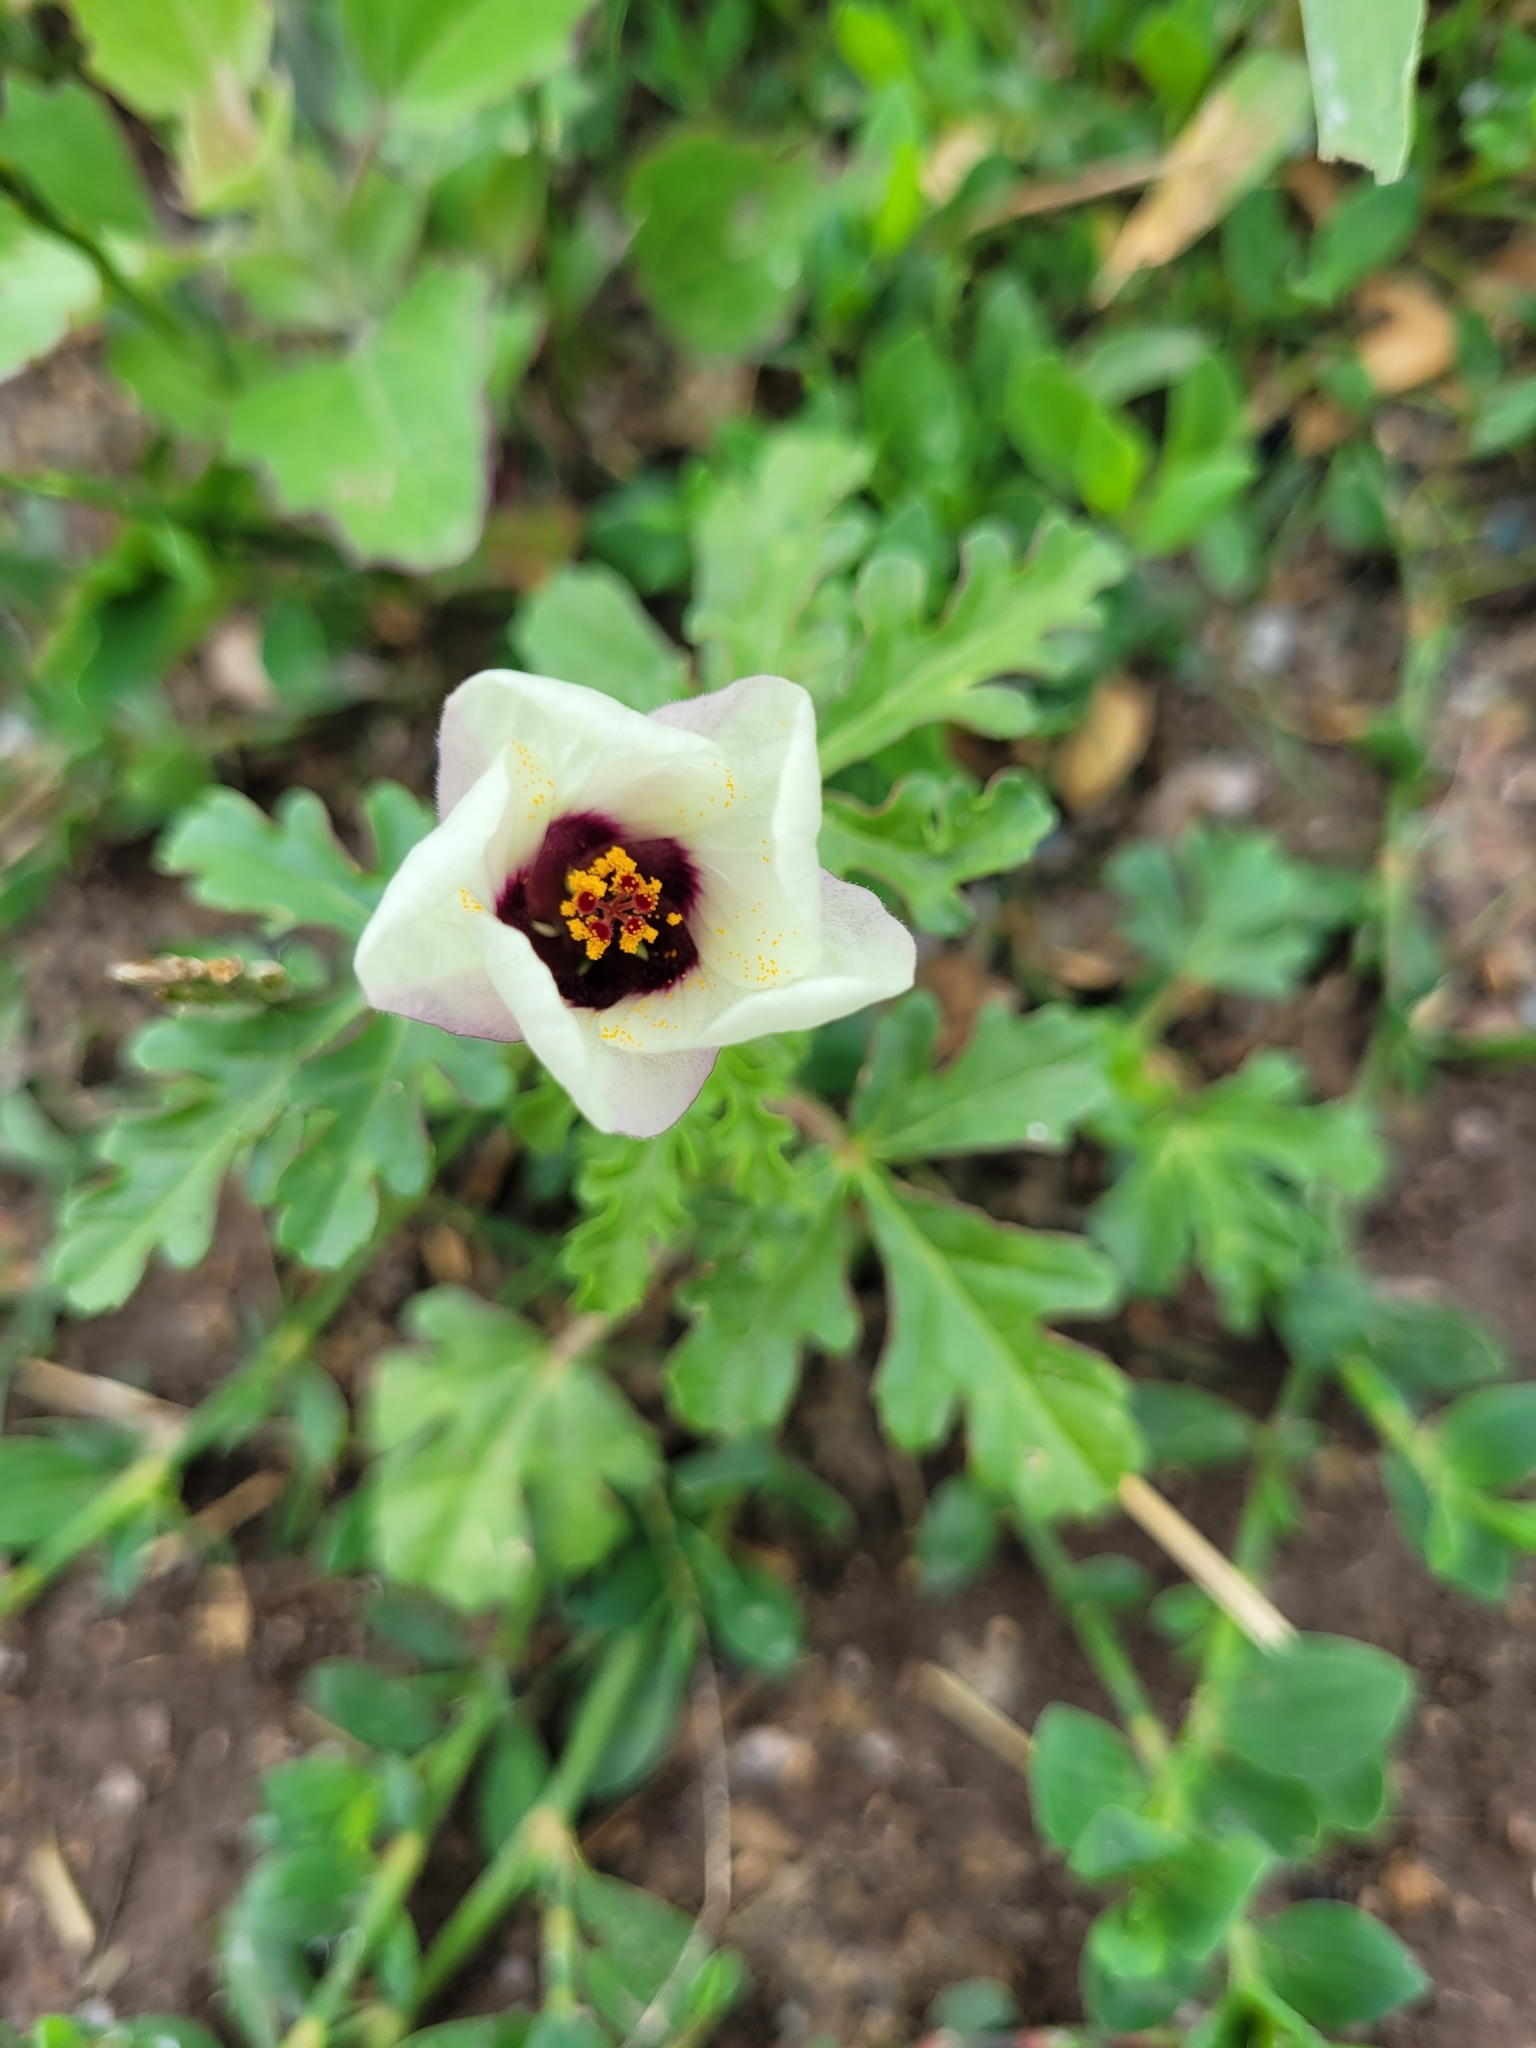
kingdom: Plantae
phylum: Tracheophyta
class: Magnoliopsida
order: Malvales
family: Malvaceae
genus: Hibiscus
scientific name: Hibiscus trionum
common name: Bladder ketmia
